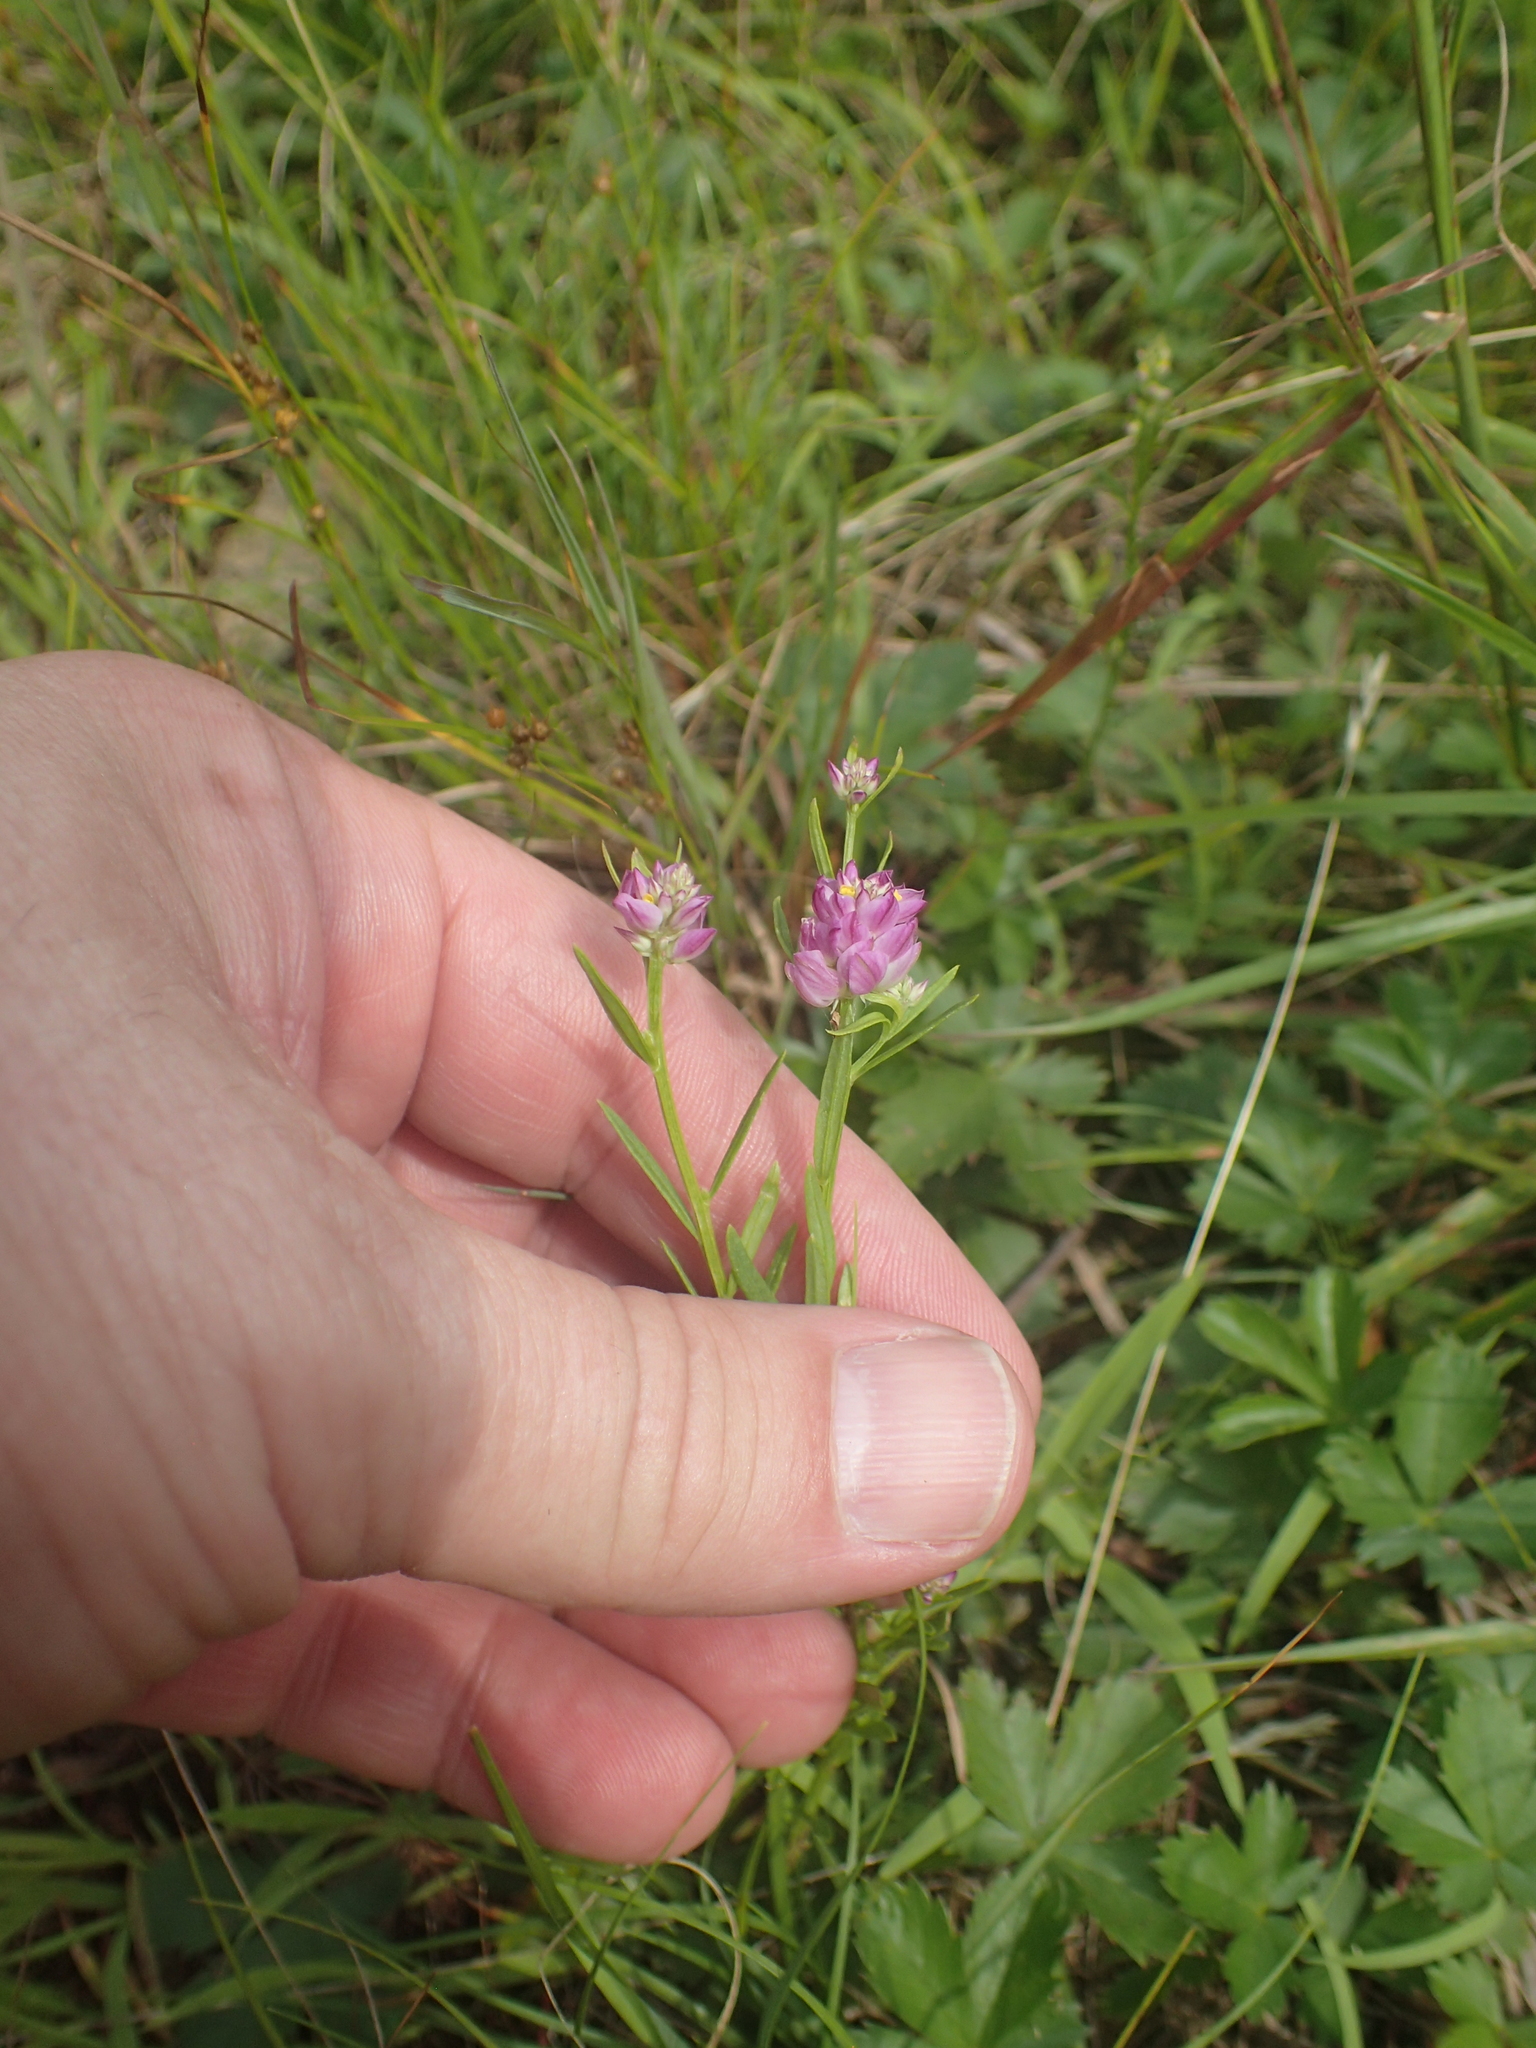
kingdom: Plantae
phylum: Tracheophyta
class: Magnoliopsida
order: Fabales
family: Polygalaceae
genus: Polygala
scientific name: Polygala sanguinea
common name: Blood milkwort
